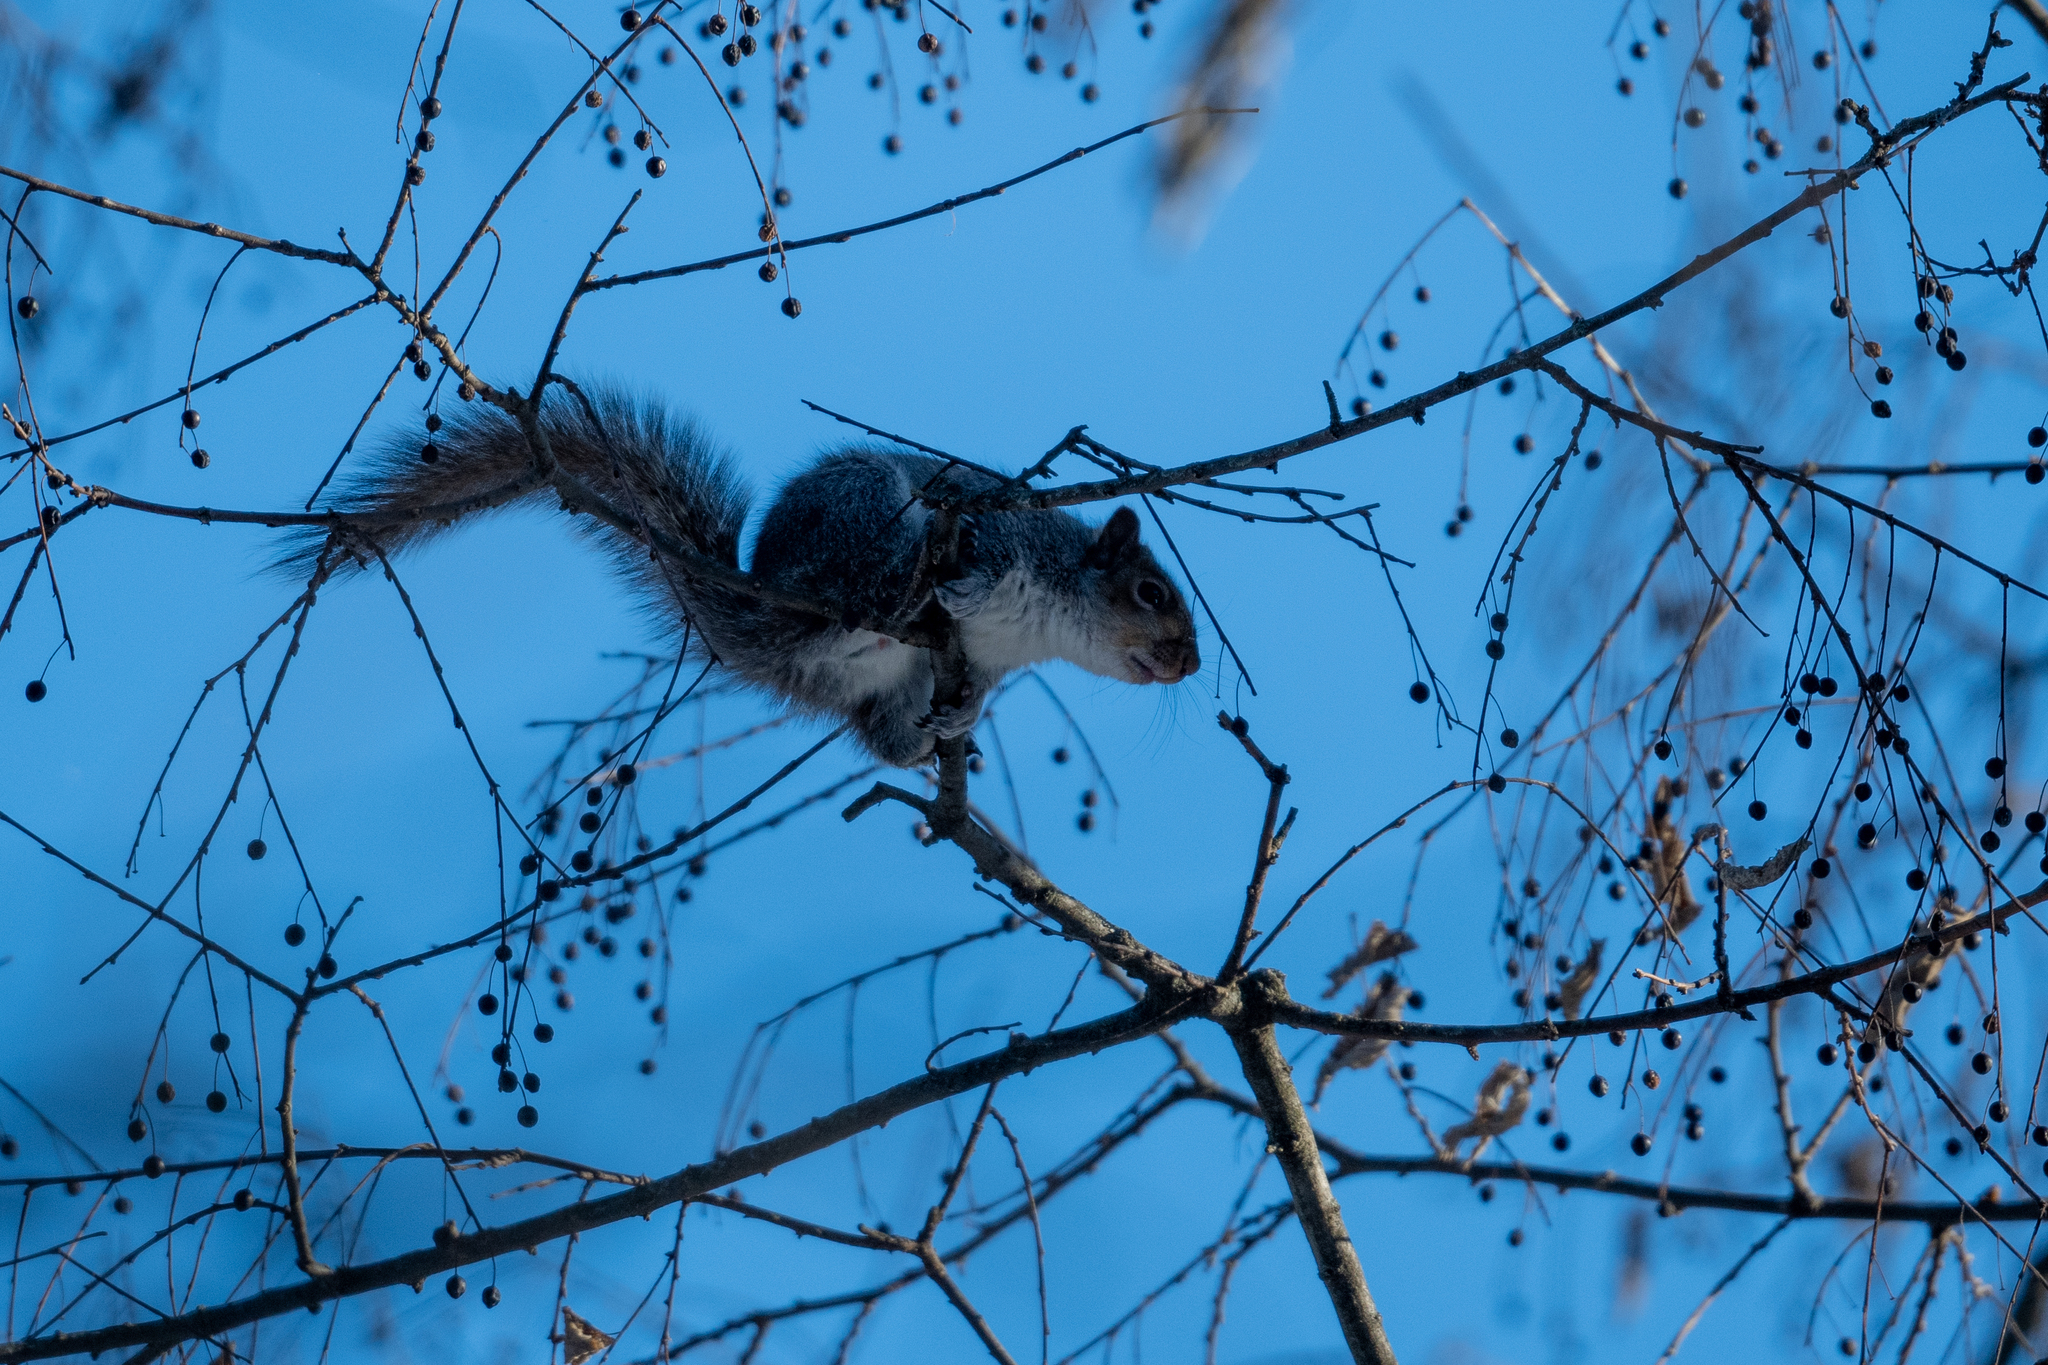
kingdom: Animalia
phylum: Chordata
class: Mammalia
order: Rodentia
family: Sciuridae
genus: Sciurus
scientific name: Sciurus carolinensis
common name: Eastern gray squirrel
